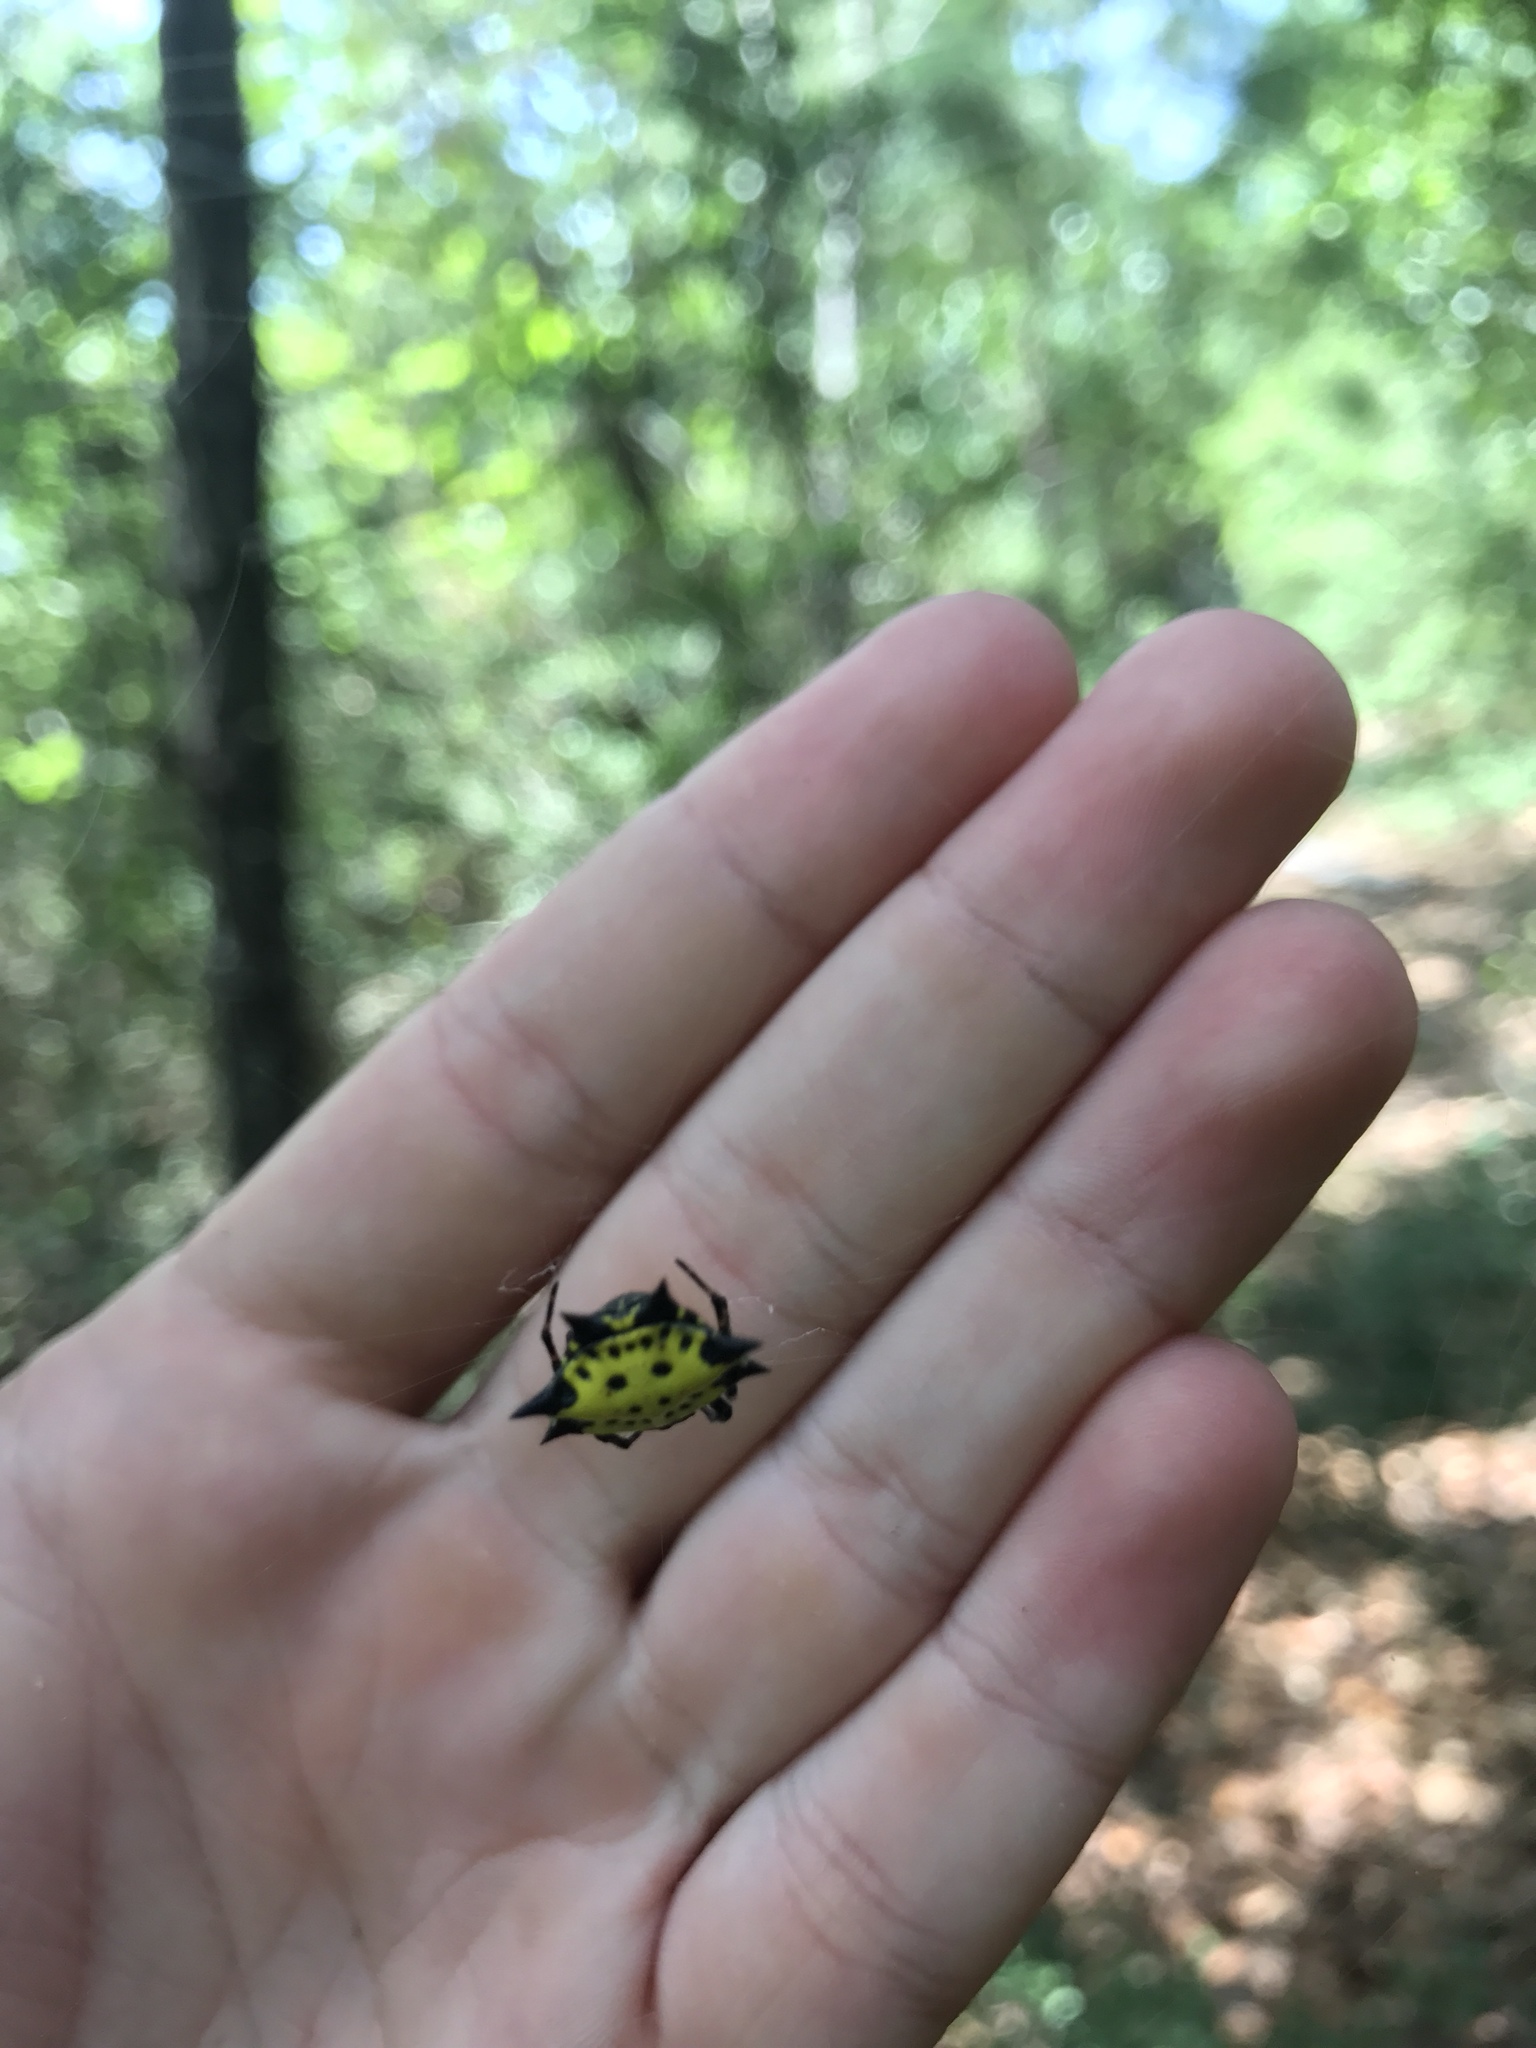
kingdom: Animalia
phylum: Arthropoda
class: Arachnida
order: Araneae
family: Araneidae
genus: Gasteracantha
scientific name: Gasteracantha cancriformis
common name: Orb weavers
